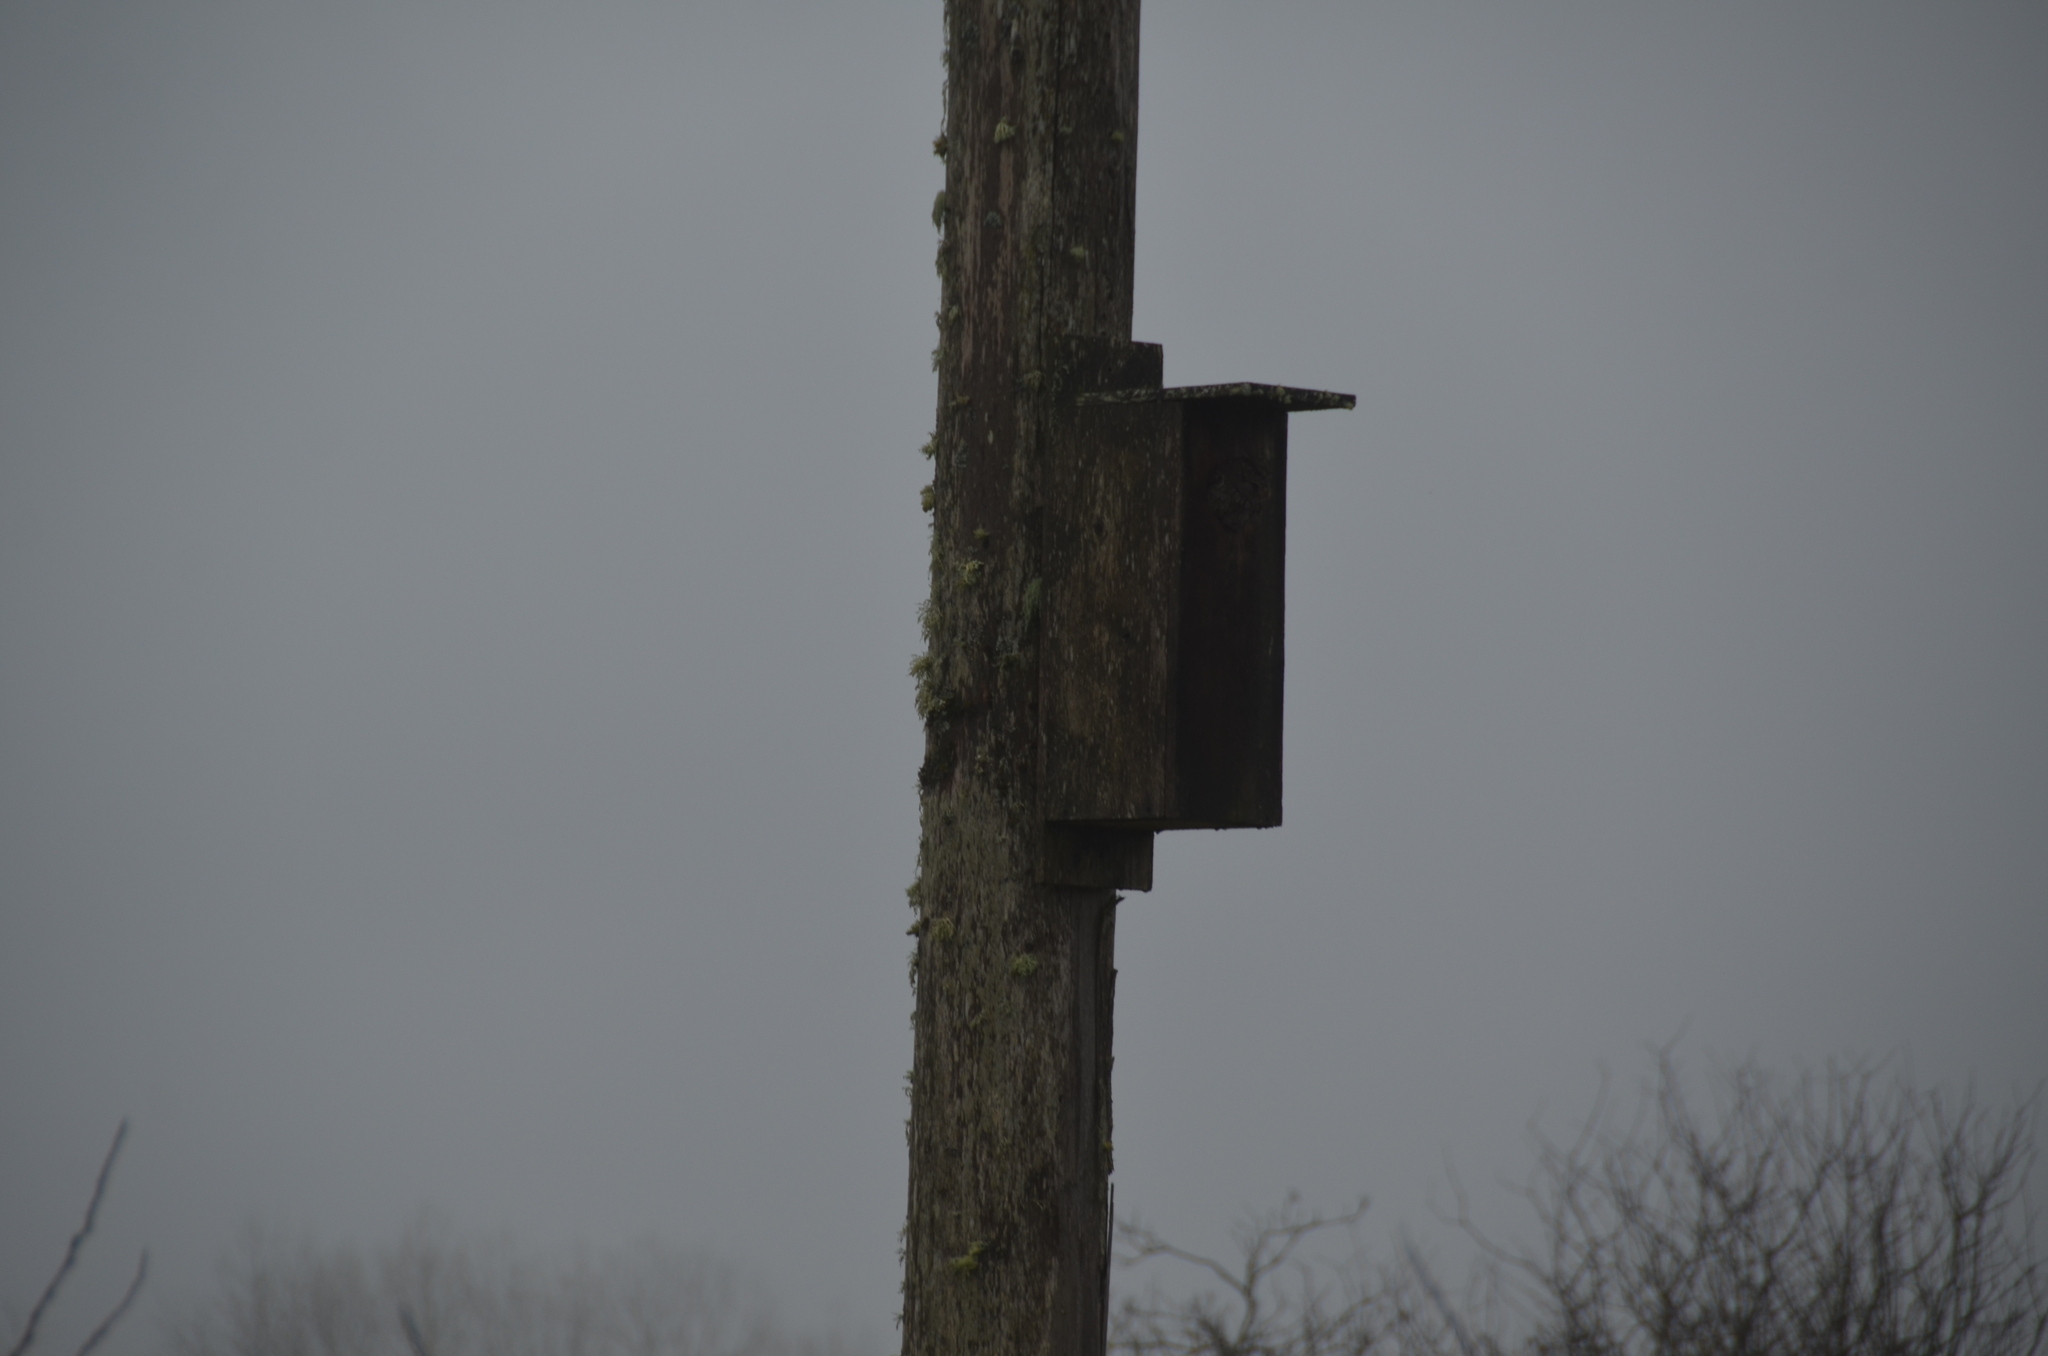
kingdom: Animalia
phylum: Chordata
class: Aves
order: Strigiformes
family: Strigidae
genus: Megascops
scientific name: Megascops kennicottii
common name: Western screech-owl
